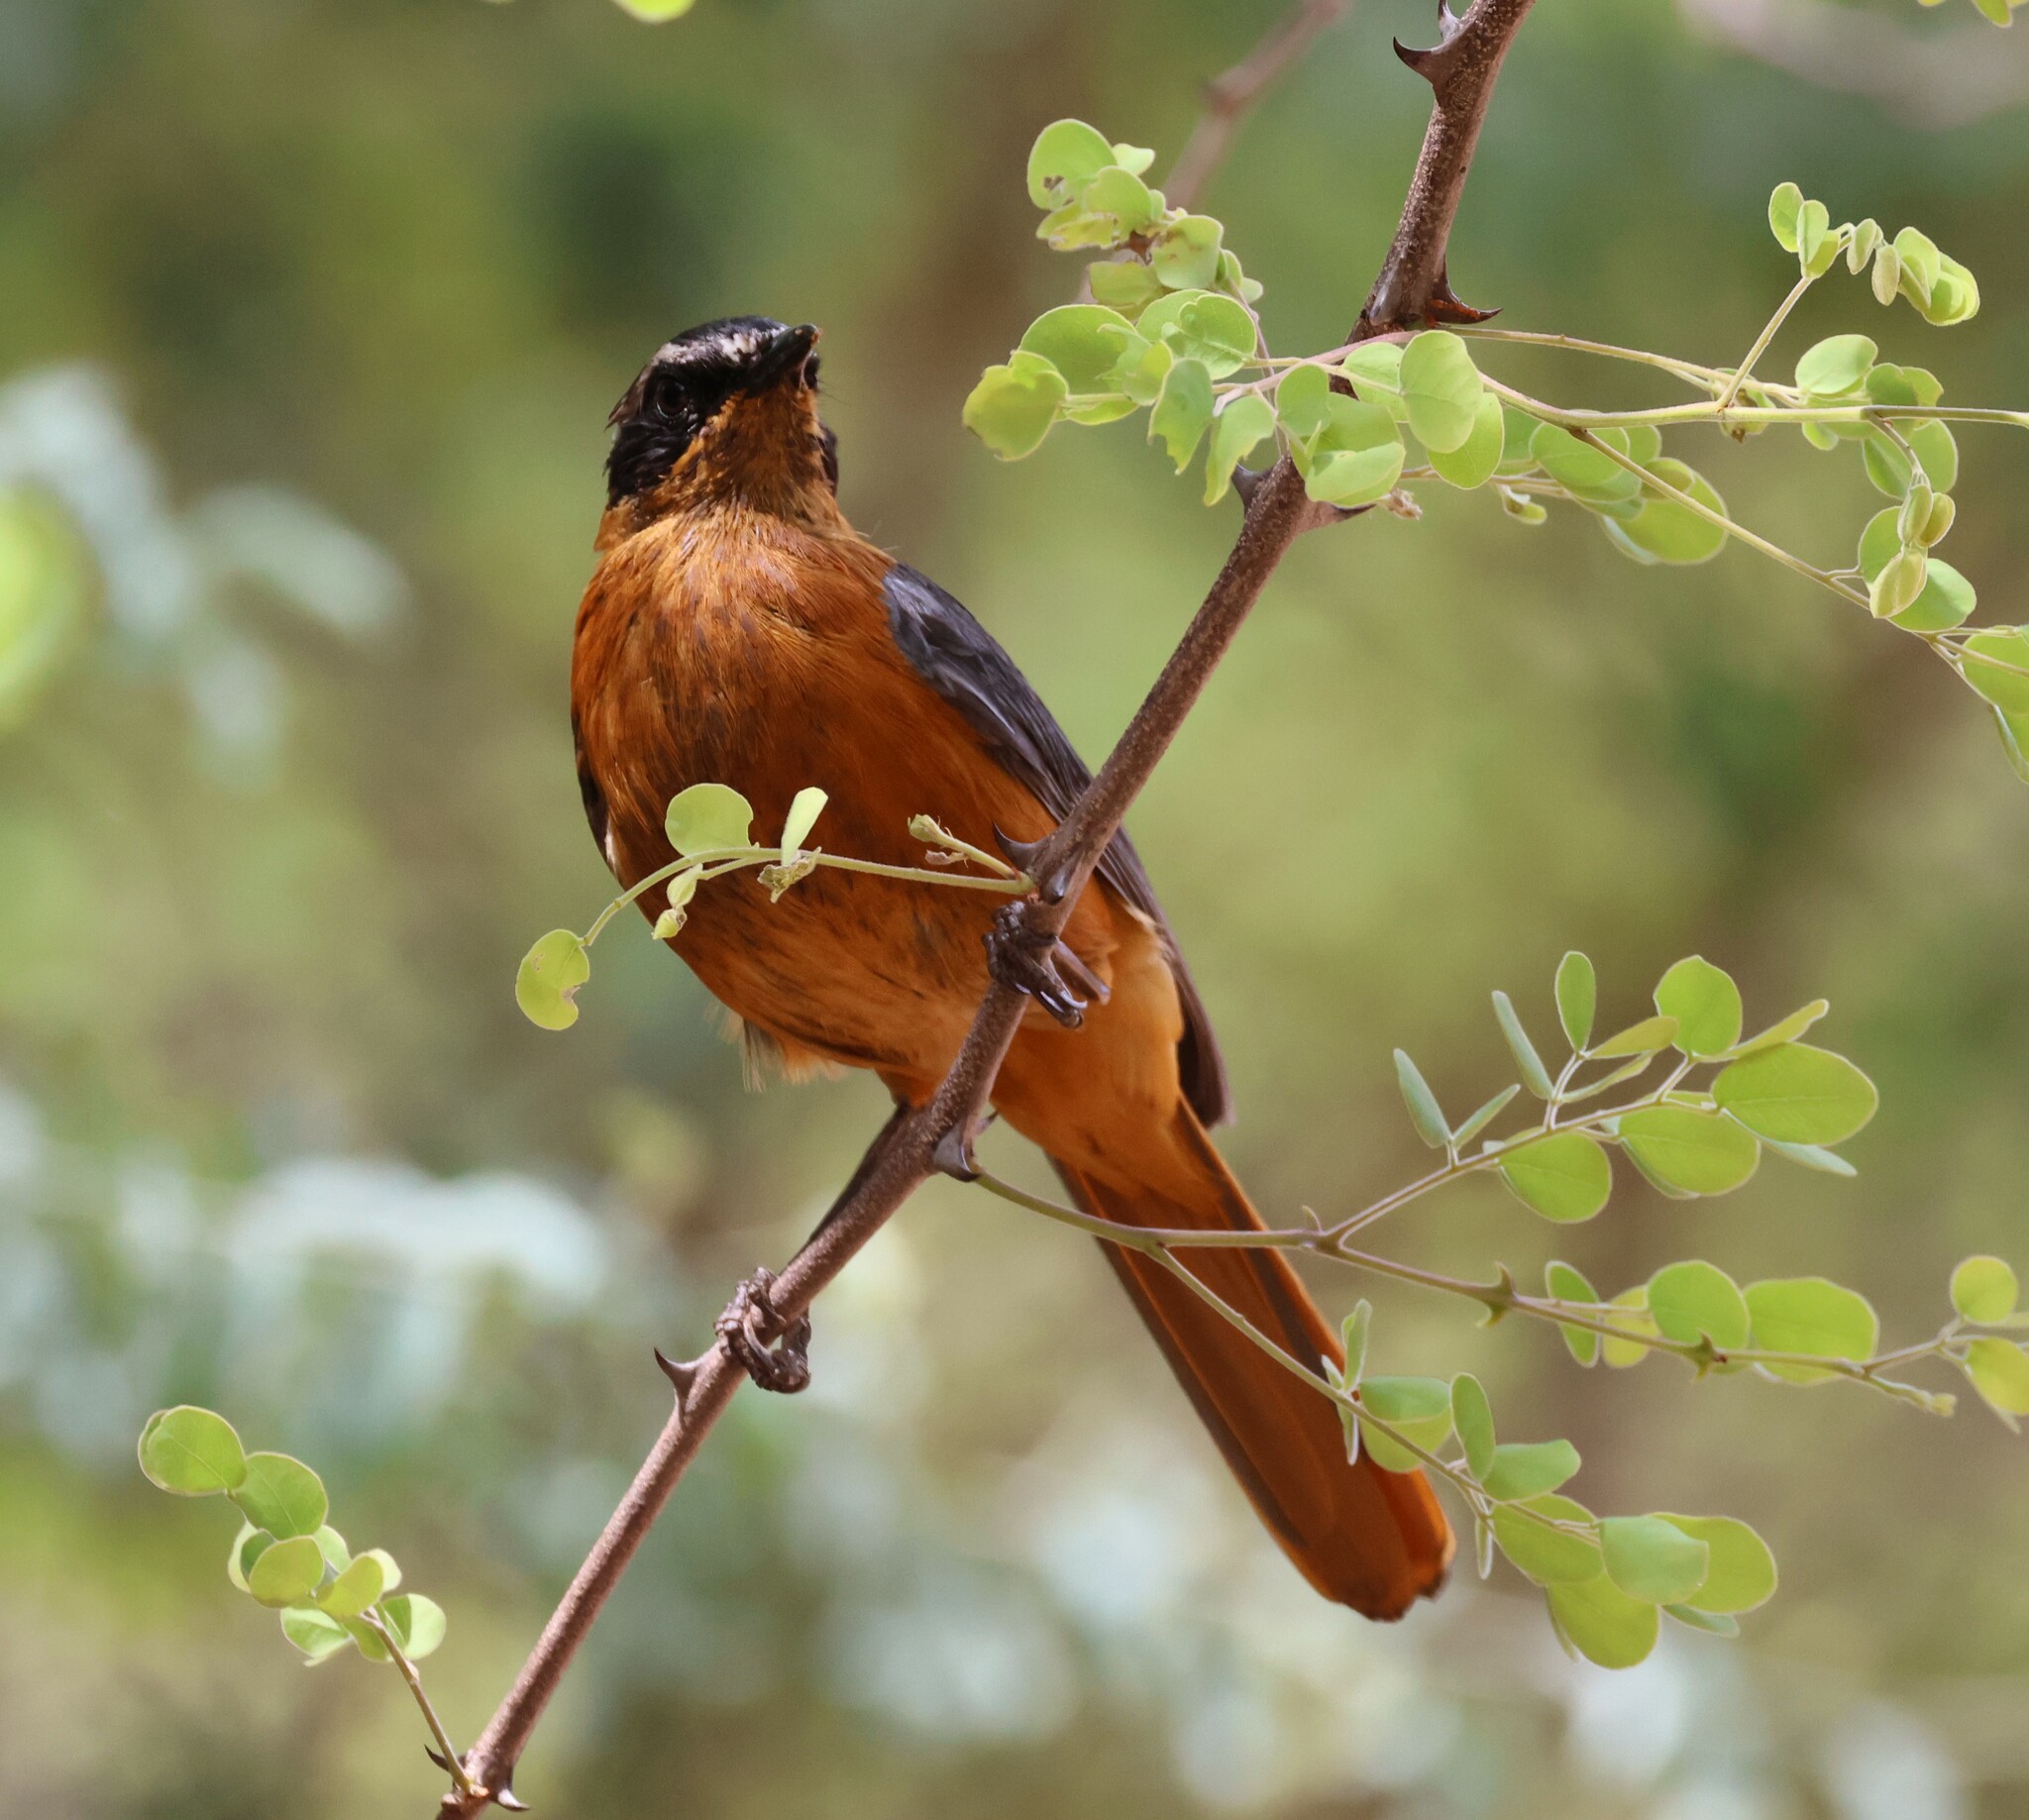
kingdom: Animalia
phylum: Chordata
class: Aves
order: Passeriformes
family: Muscicapidae
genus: Cossypha
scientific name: Cossypha heuglini
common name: White-browed robin-chat
